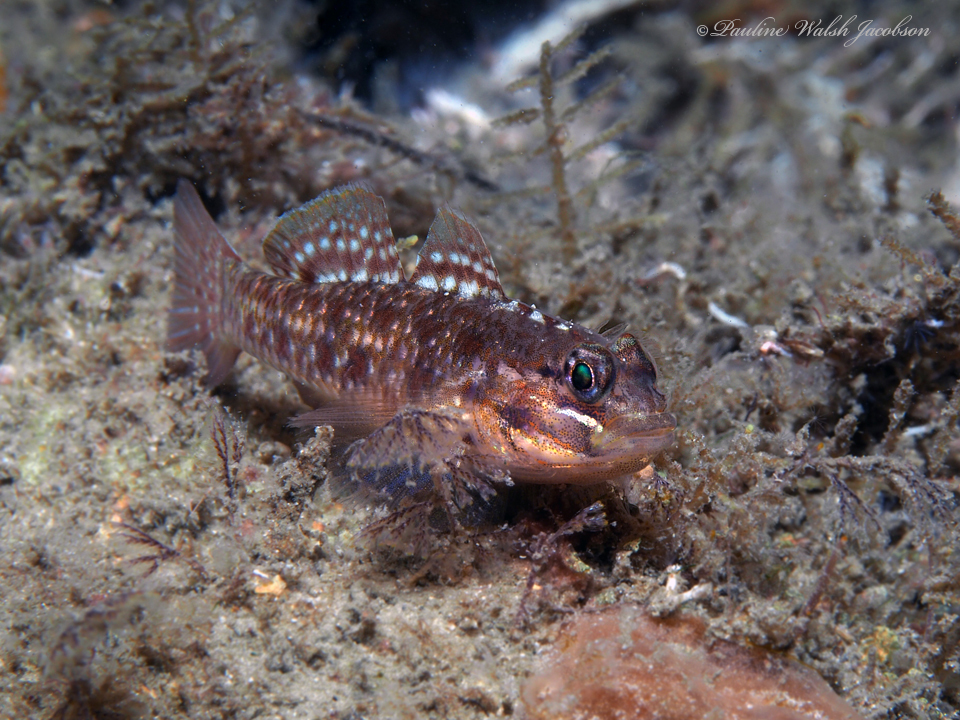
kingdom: Animalia
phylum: Chordata
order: Perciformes
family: Gobiidae
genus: Coryphopterus
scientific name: Coryphopterus dicrus
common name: Colon goby
